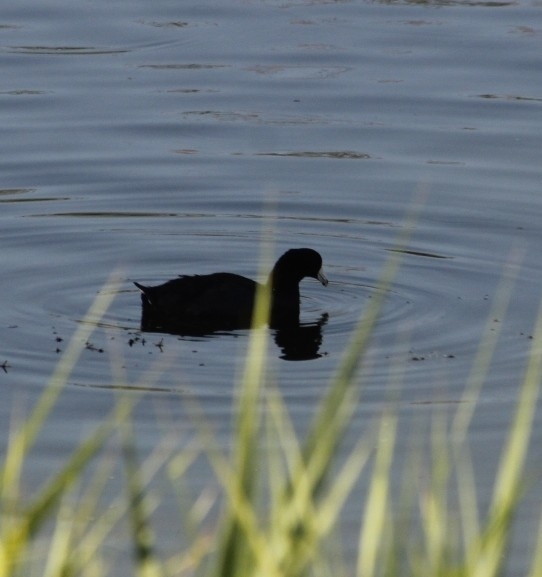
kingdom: Animalia
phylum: Chordata
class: Aves
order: Gruiformes
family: Rallidae
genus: Fulica
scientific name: Fulica americana
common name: American coot
